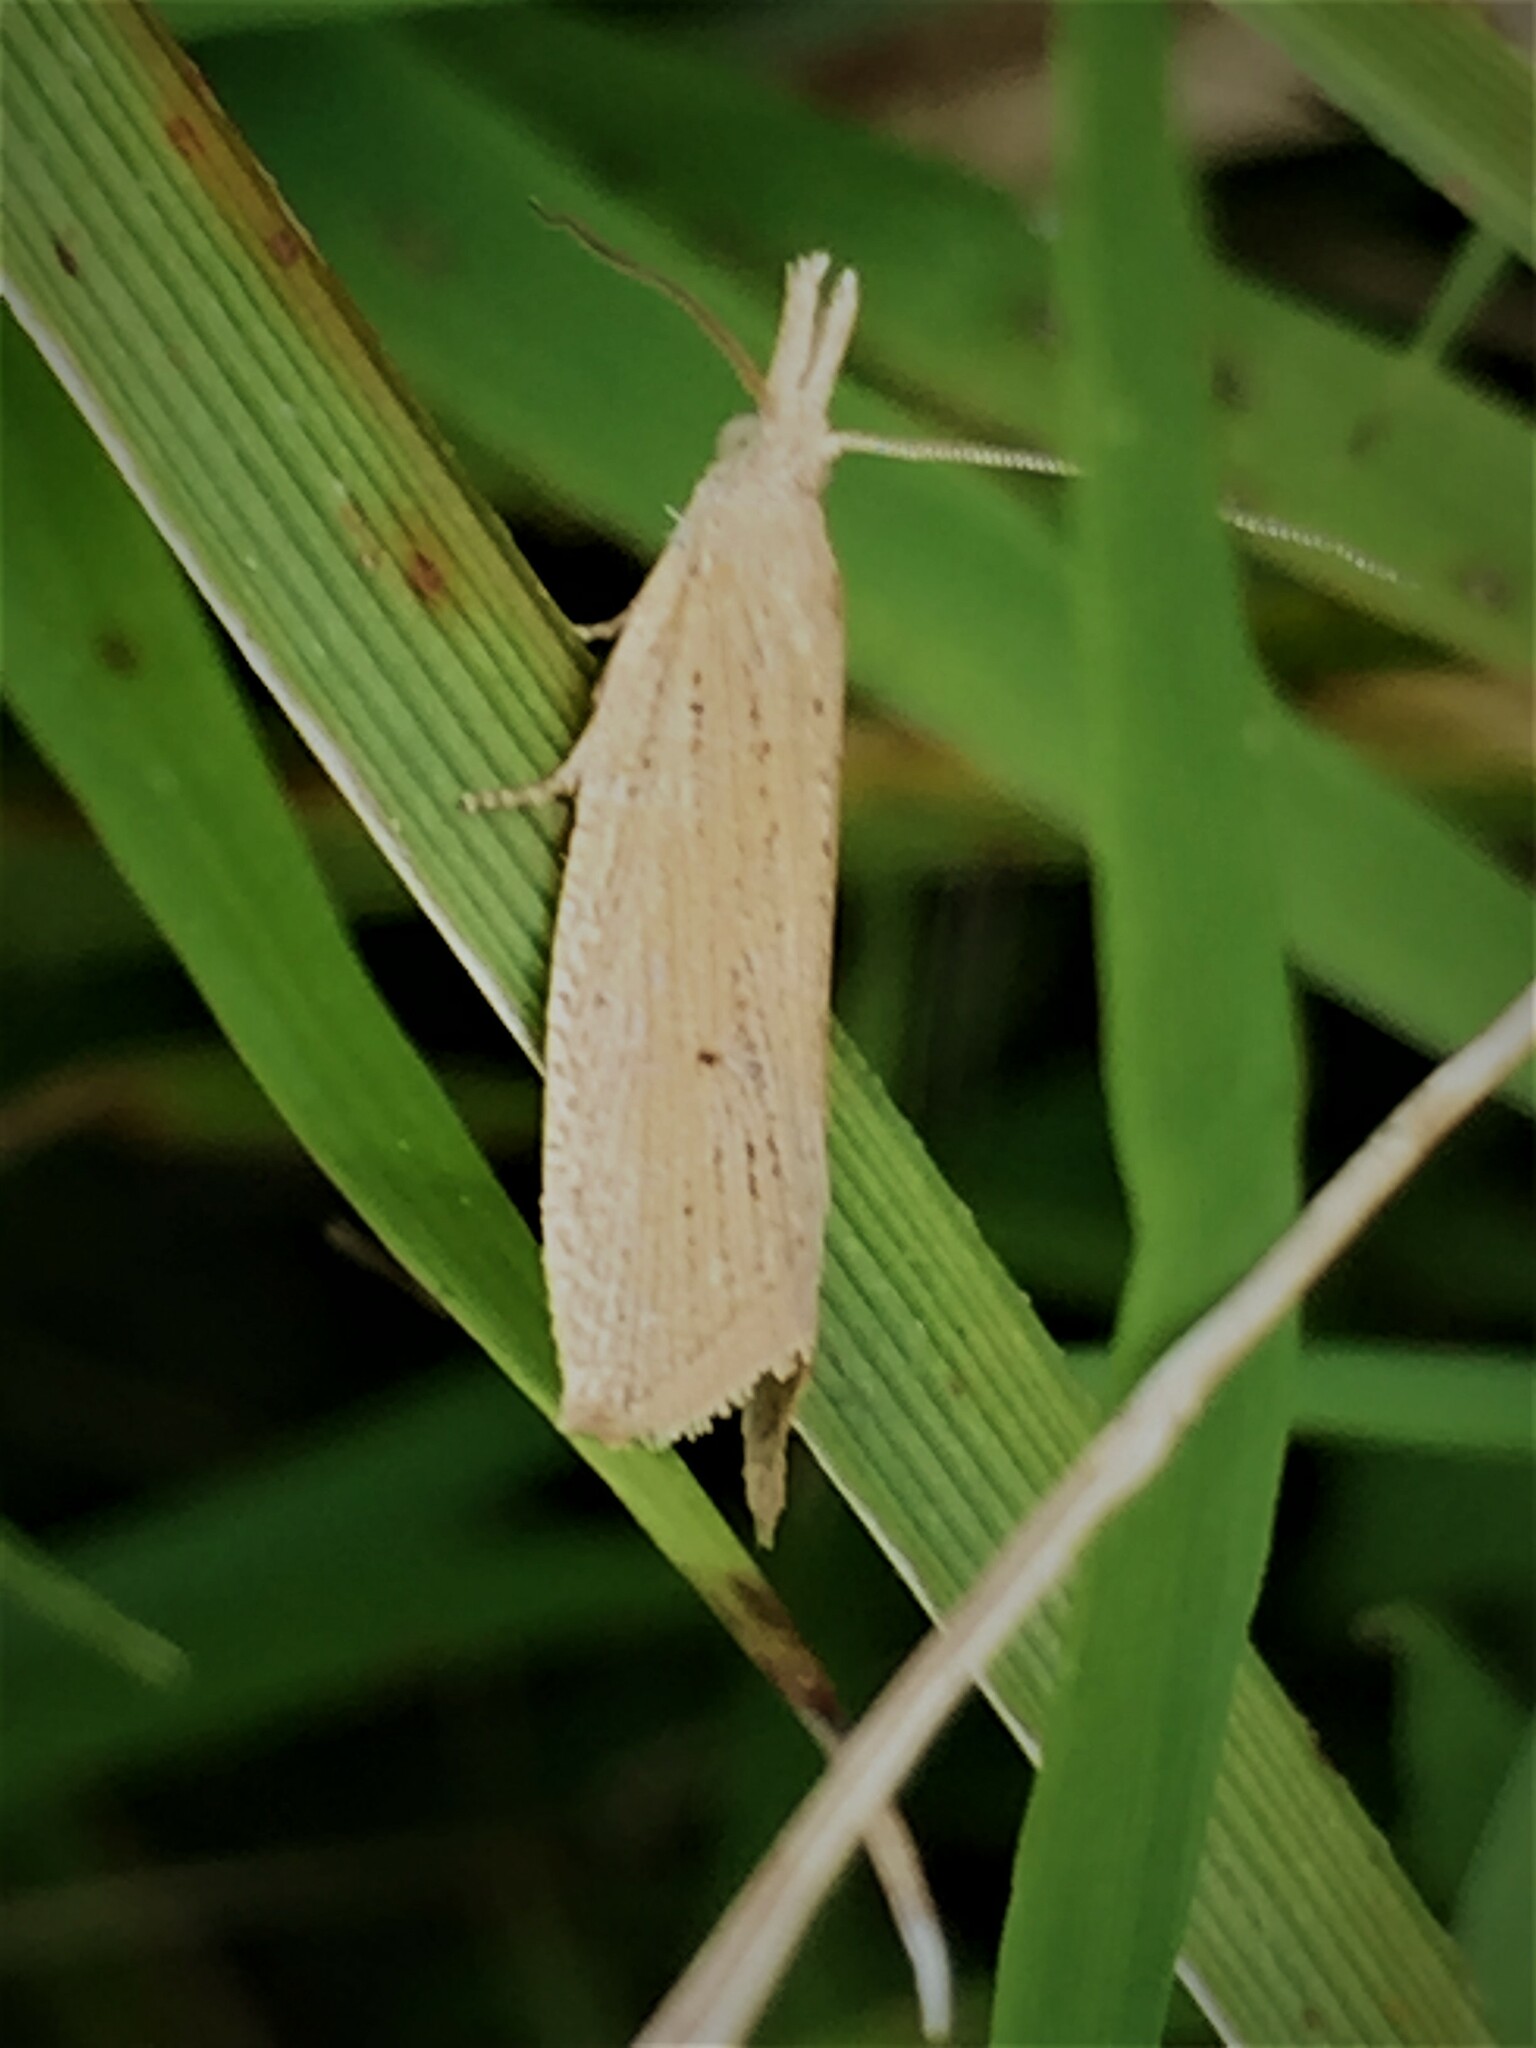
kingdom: Animalia
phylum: Arthropoda
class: Insecta
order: Lepidoptera
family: Tortricidae
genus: Bactra
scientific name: Bactra noteraula
